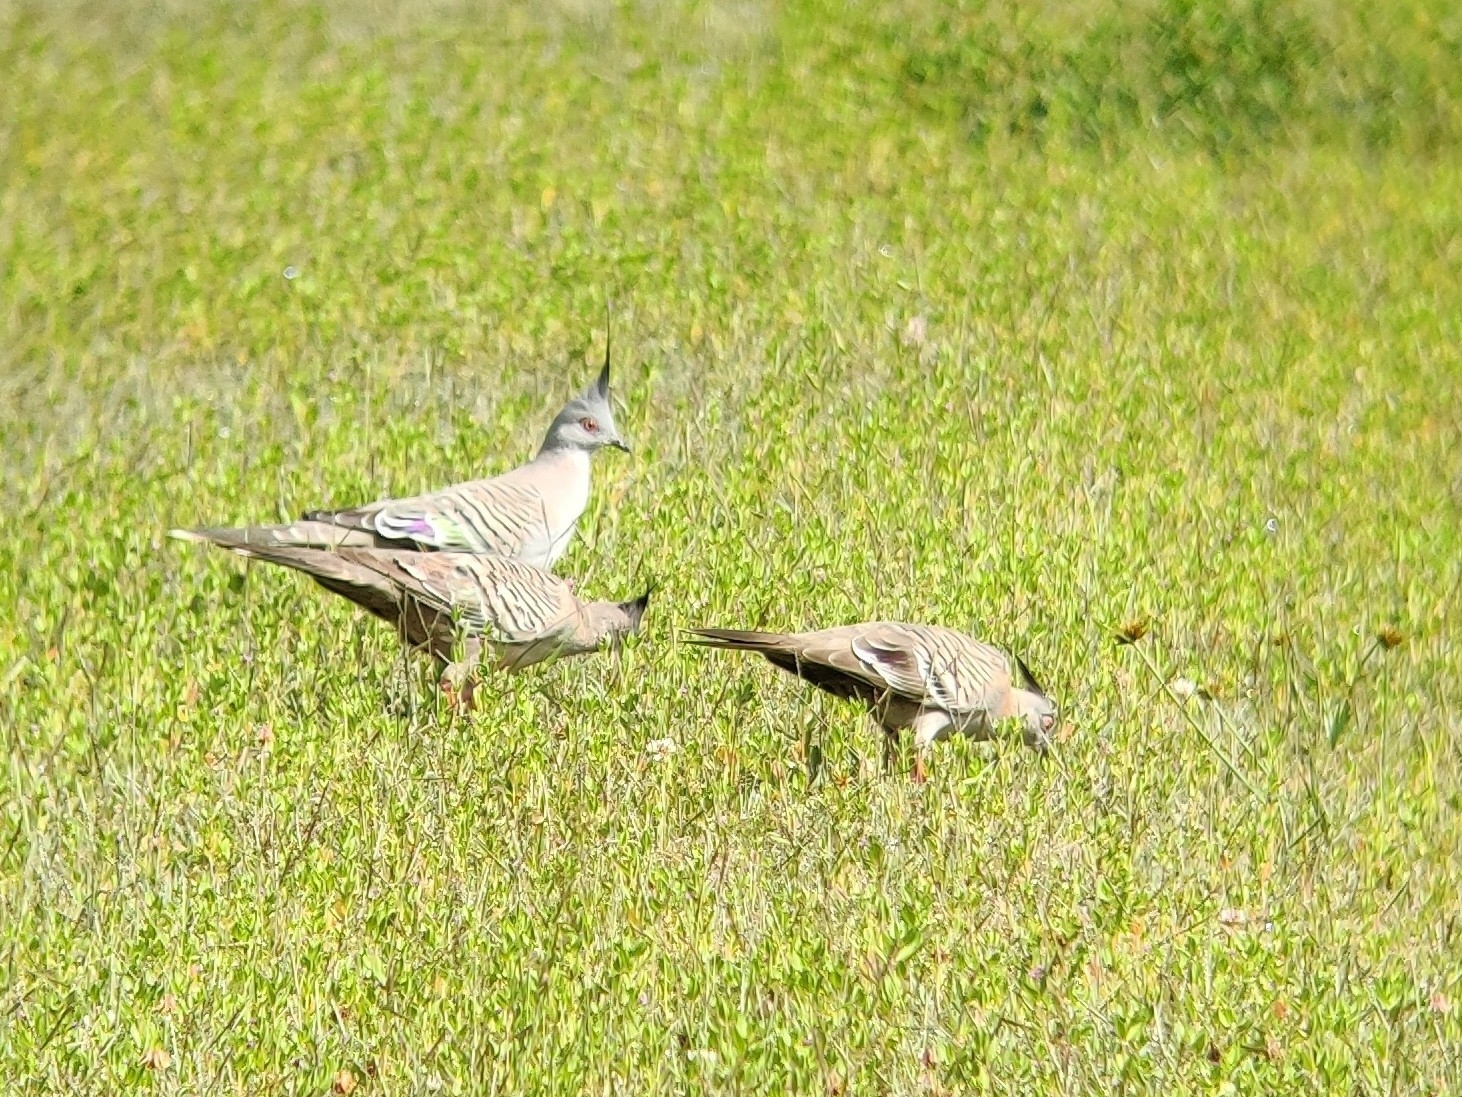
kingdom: Animalia
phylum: Chordata
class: Aves
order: Columbiformes
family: Columbidae
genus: Ocyphaps
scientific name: Ocyphaps lophotes
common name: Crested pigeon
